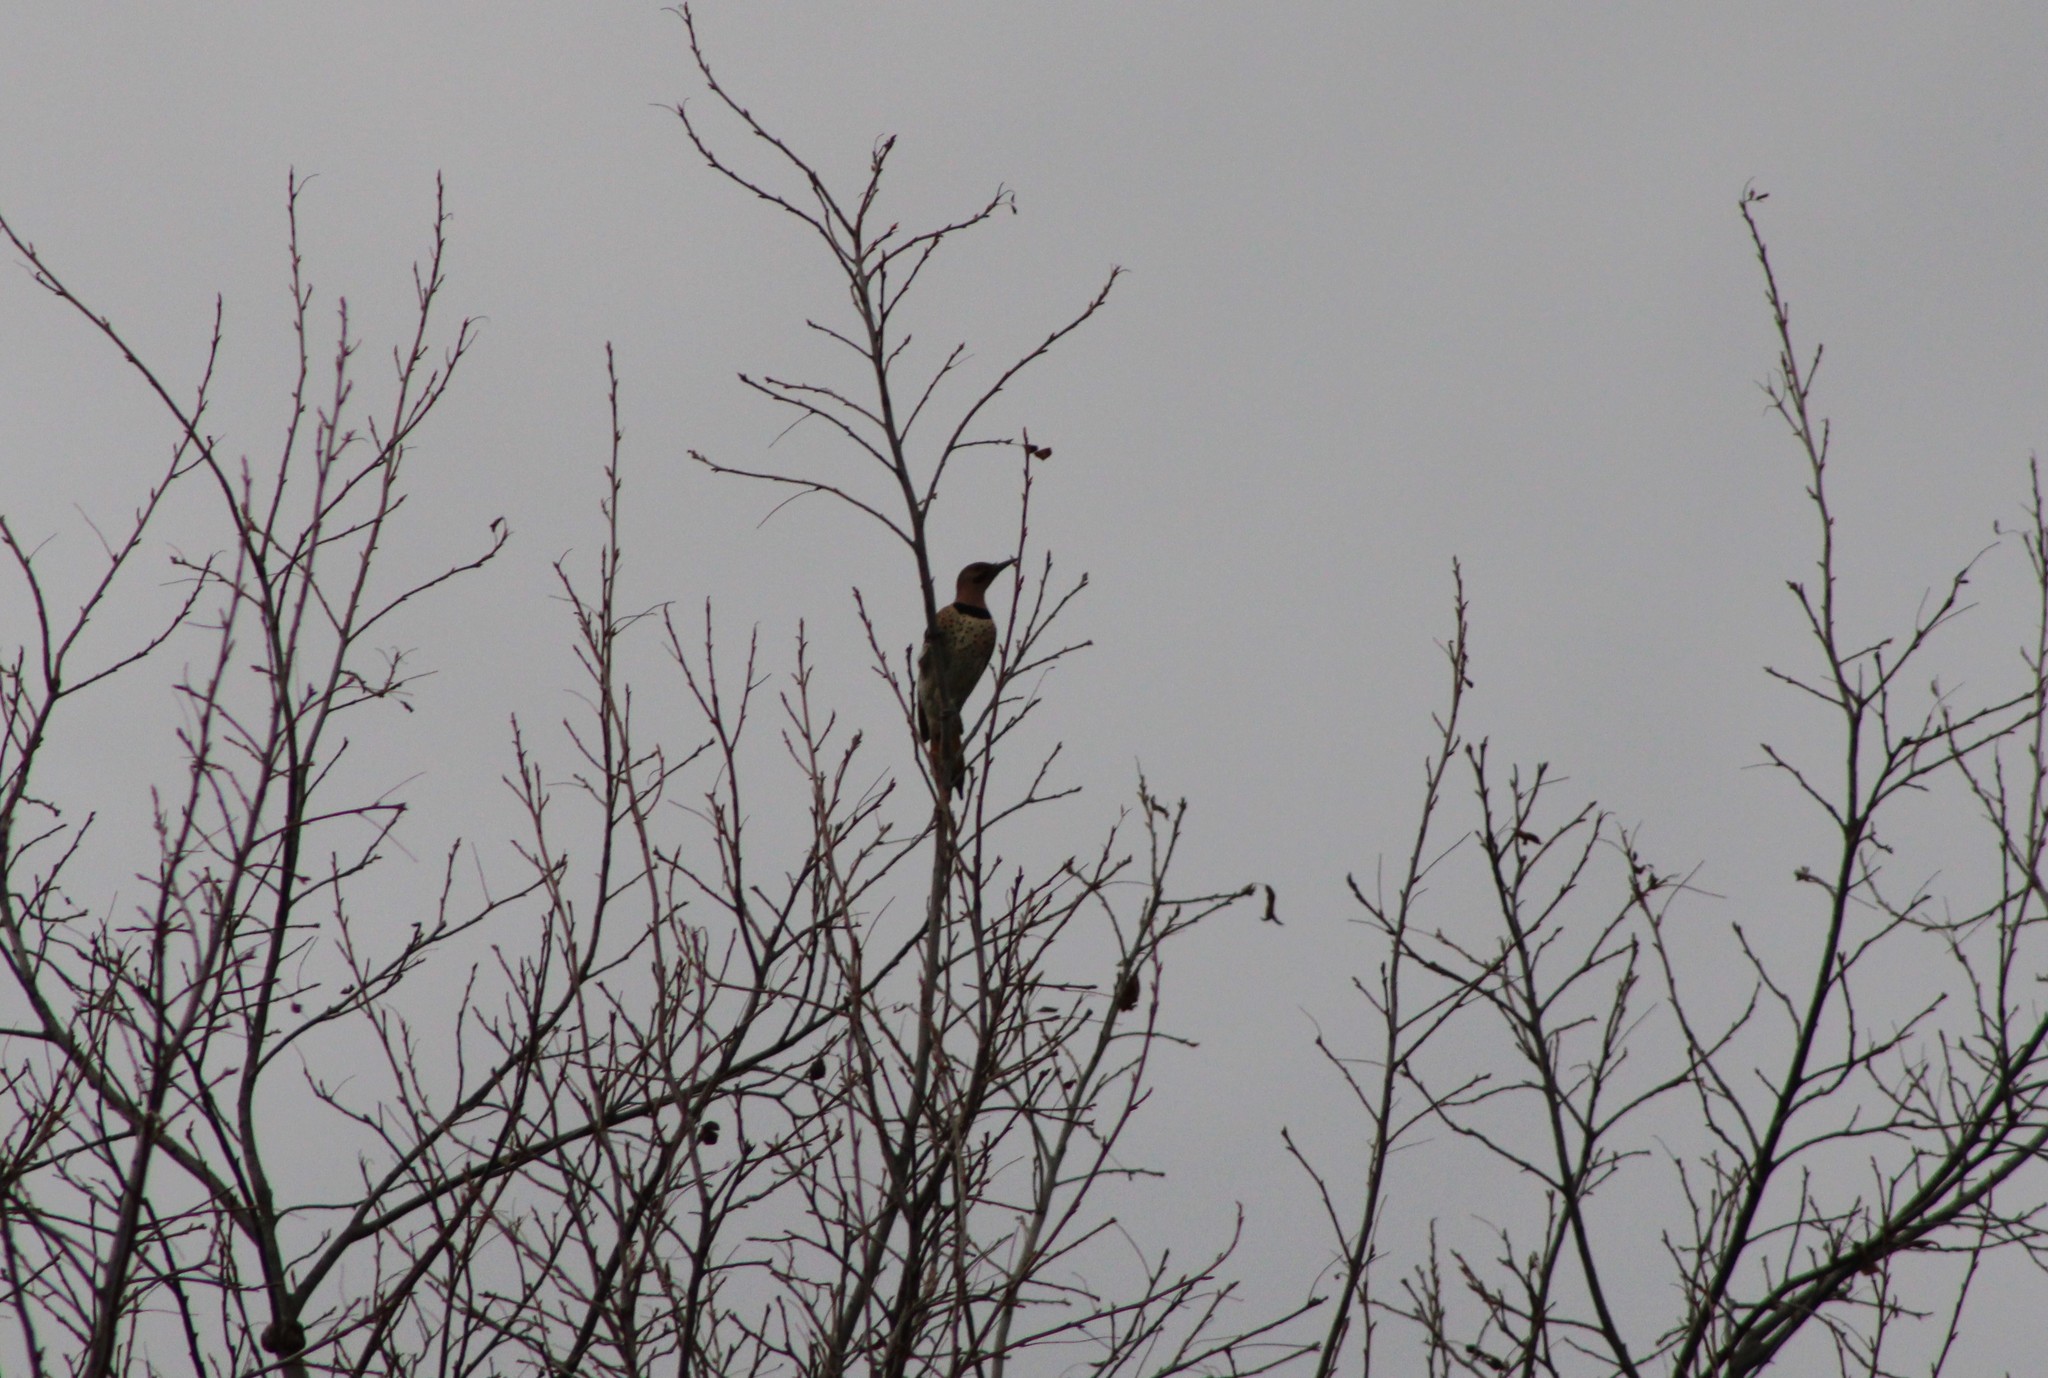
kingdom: Animalia
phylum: Chordata
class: Aves
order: Piciformes
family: Picidae
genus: Colaptes
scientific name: Colaptes auratus
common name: Northern flicker
